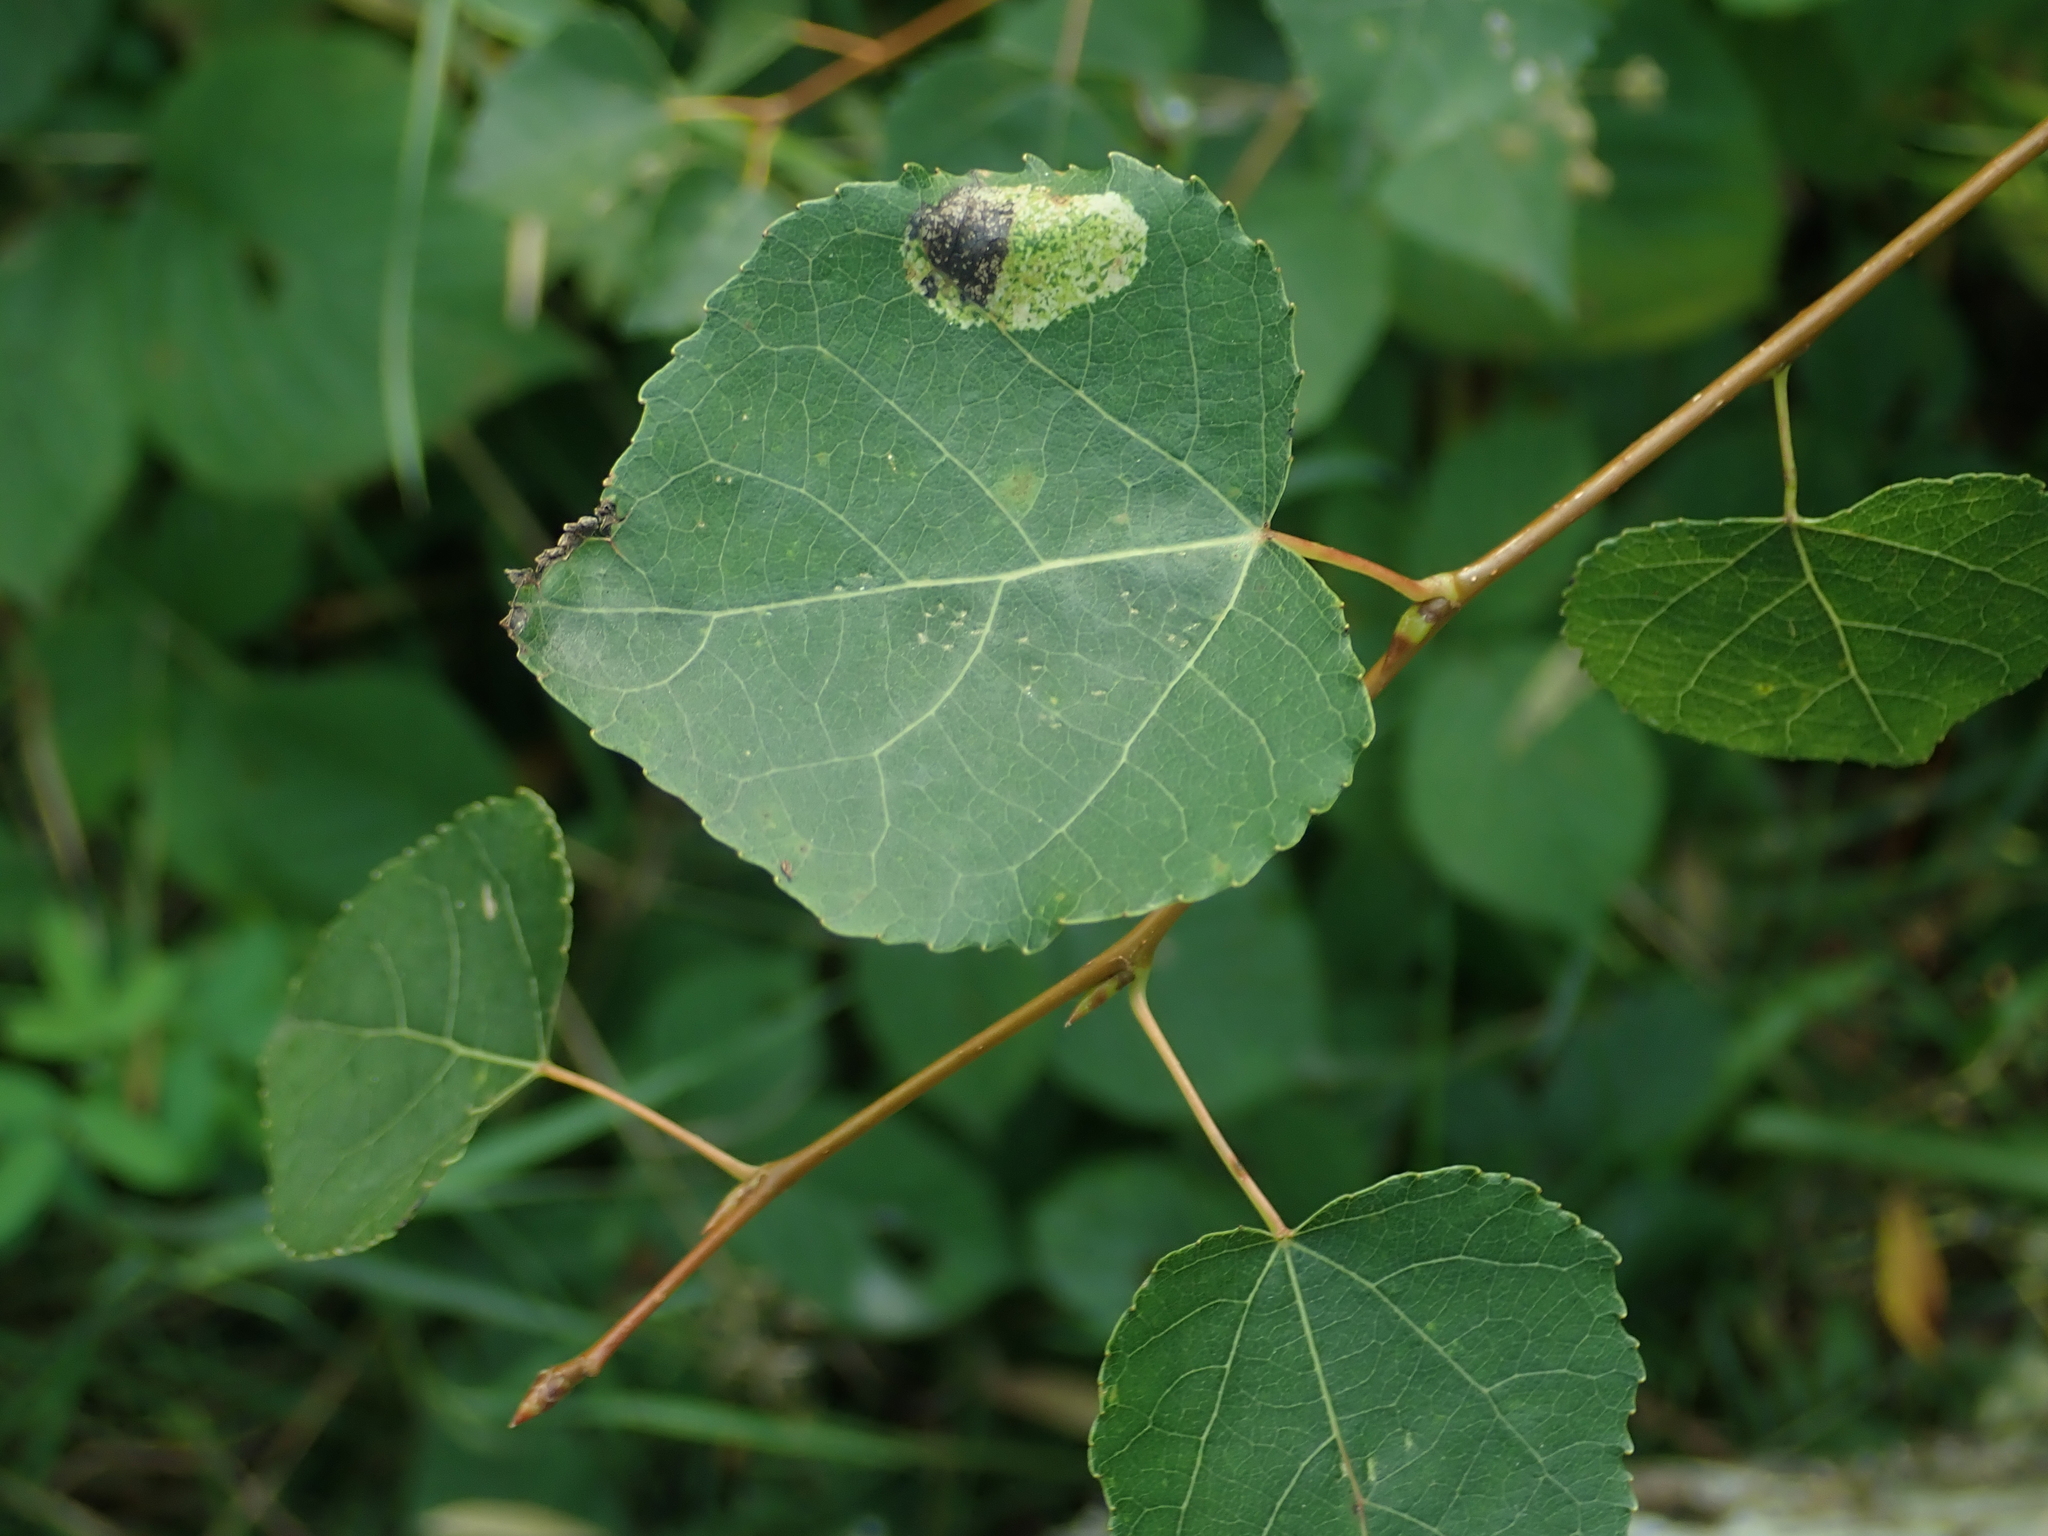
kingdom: Plantae
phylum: Tracheophyta
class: Magnoliopsida
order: Malpighiales
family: Salicaceae
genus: Populus
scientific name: Populus tremula
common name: European aspen
